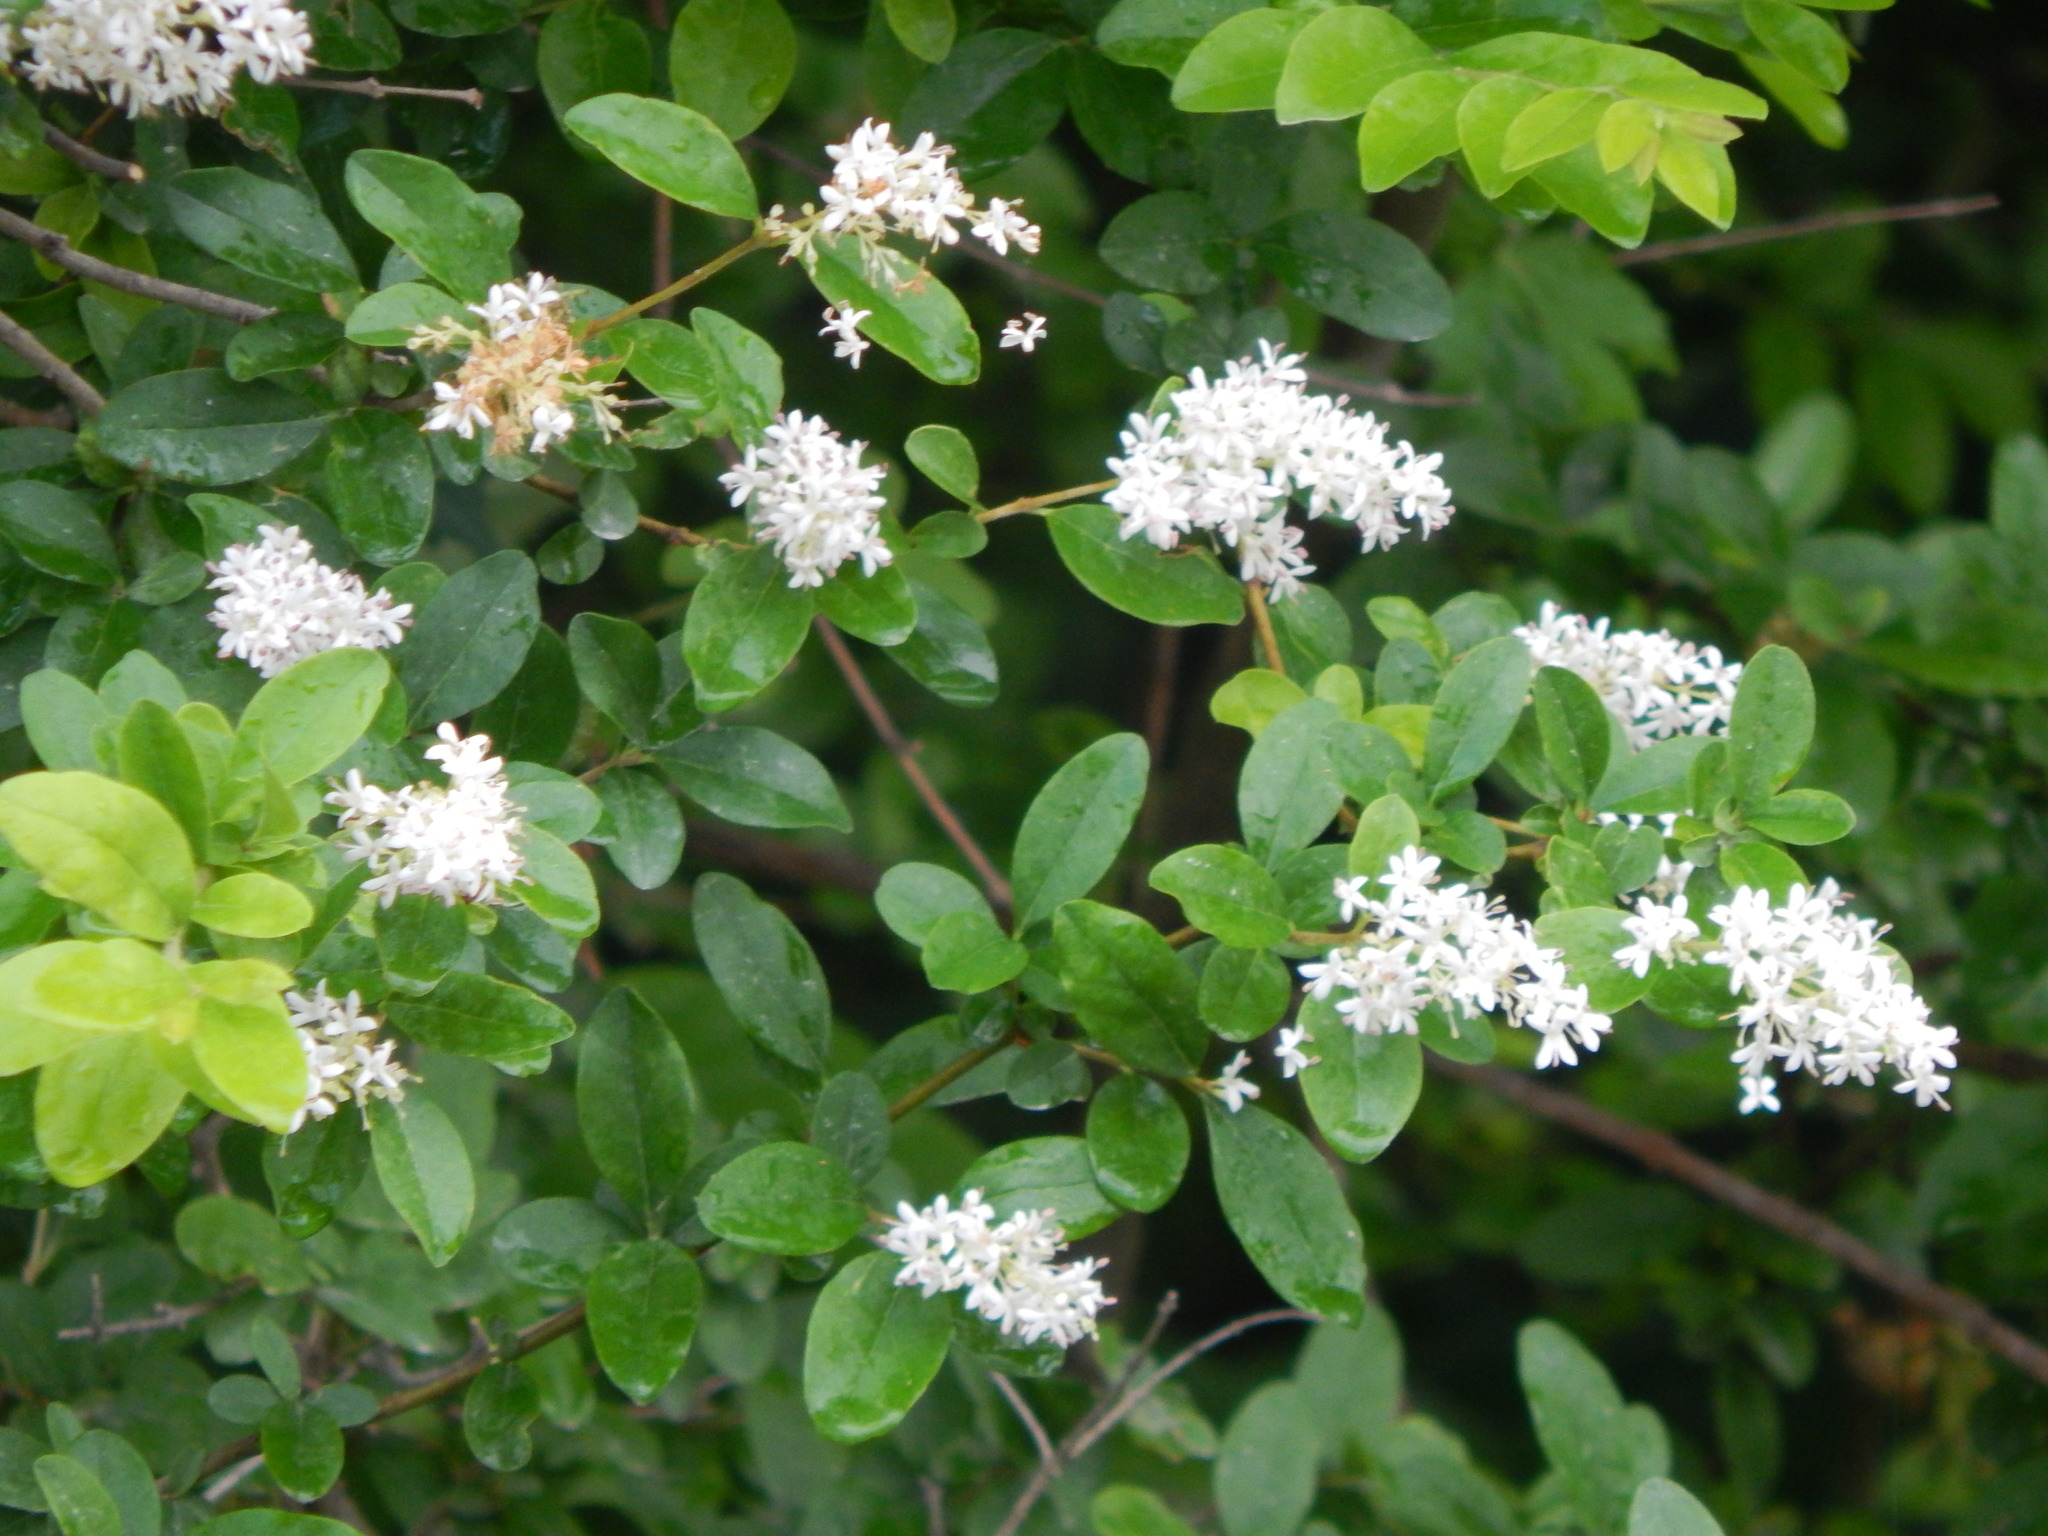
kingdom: Plantae
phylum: Tracheophyta
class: Magnoliopsida
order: Lamiales
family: Oleaceae
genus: Ligustrum
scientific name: Ligustrum sinense
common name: Chinese privet
